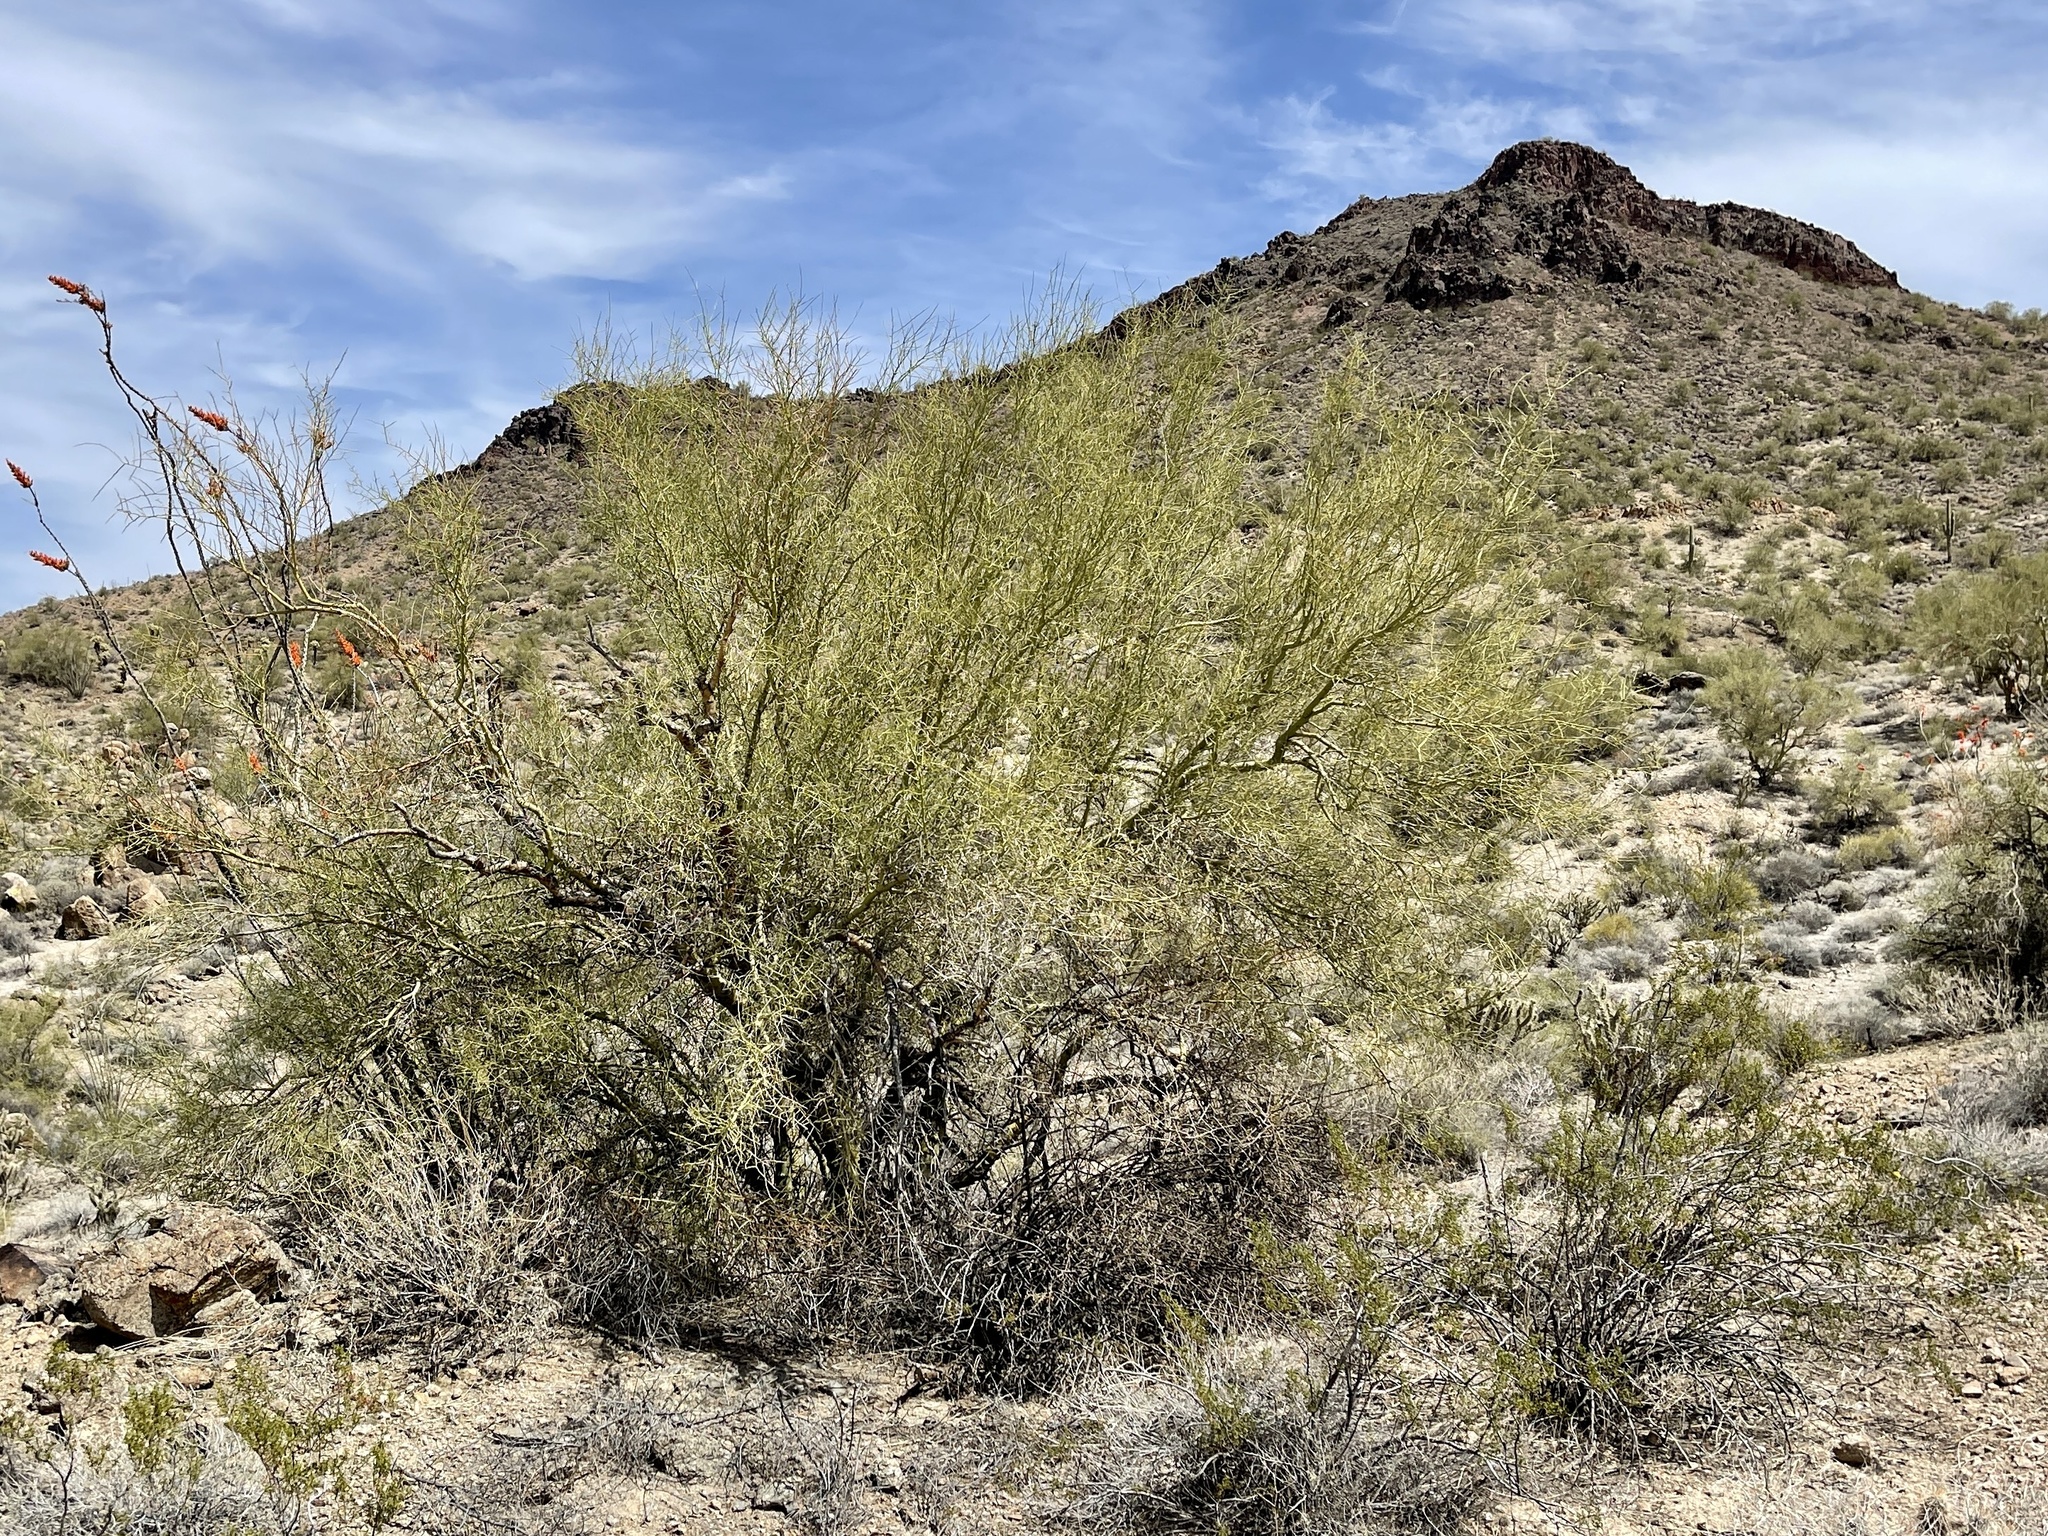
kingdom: Plantae
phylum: Tracheophyta
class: Magnoliopsida
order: Fabales
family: Fabaceae
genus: Parkinsonia
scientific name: Parkinsonia microphylla
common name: Yellow paloverde
